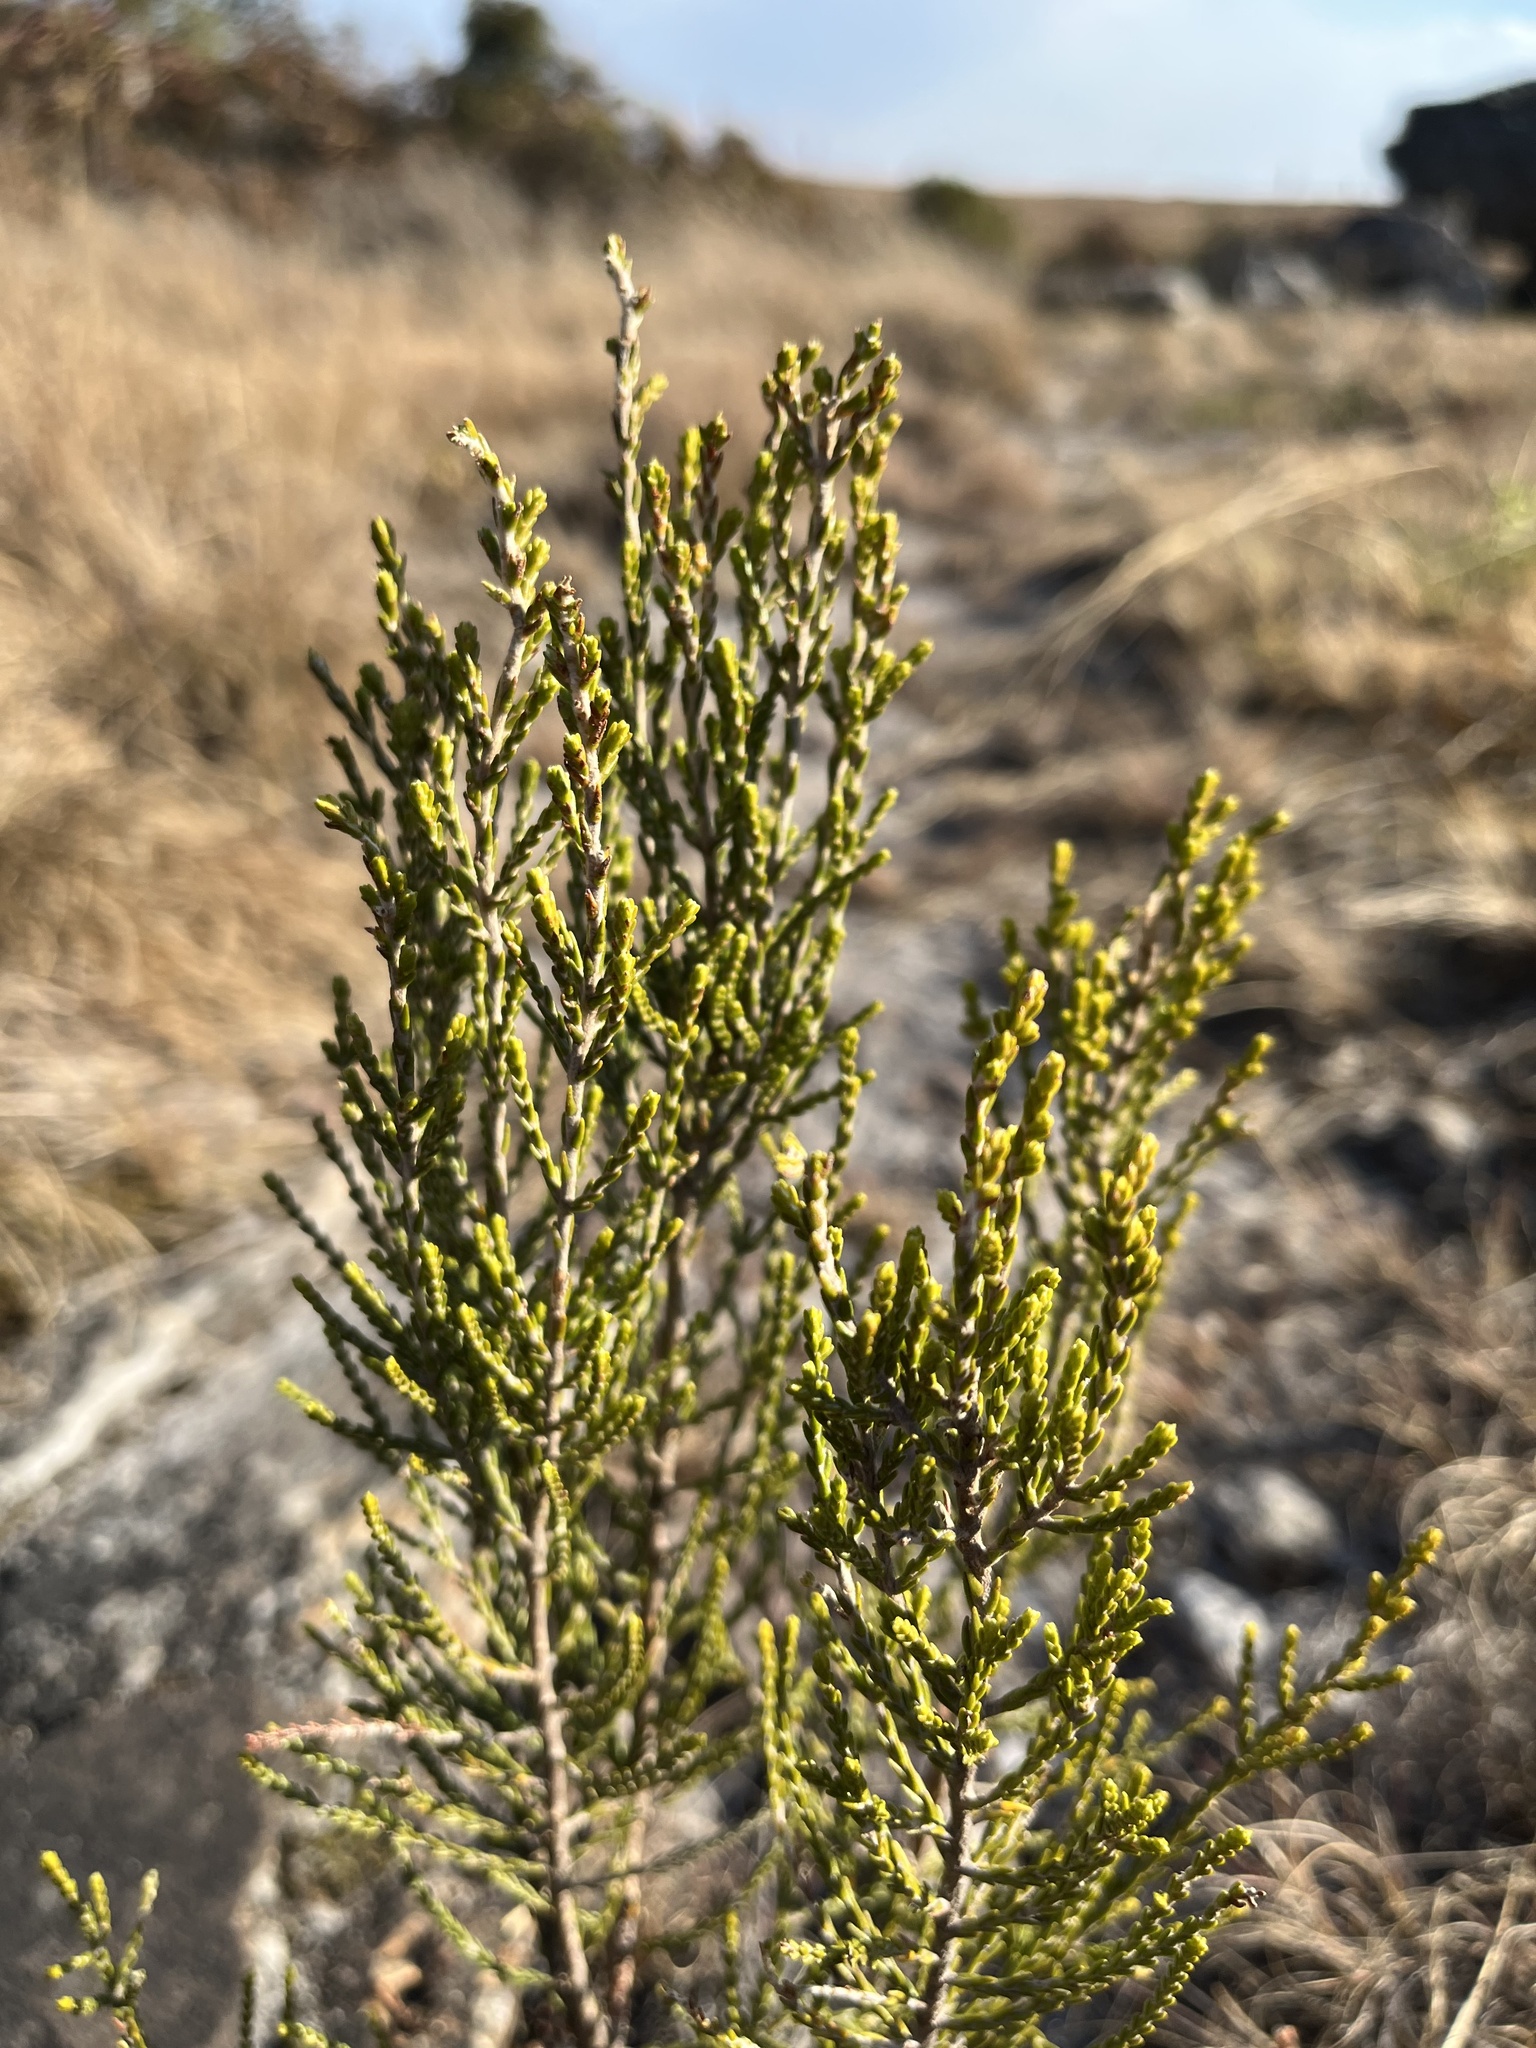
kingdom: Plantae
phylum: Tracheophyta
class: Magnoliopsida
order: Malvales
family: Thymelaeaceae
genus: Passerina
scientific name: Passerina montana
